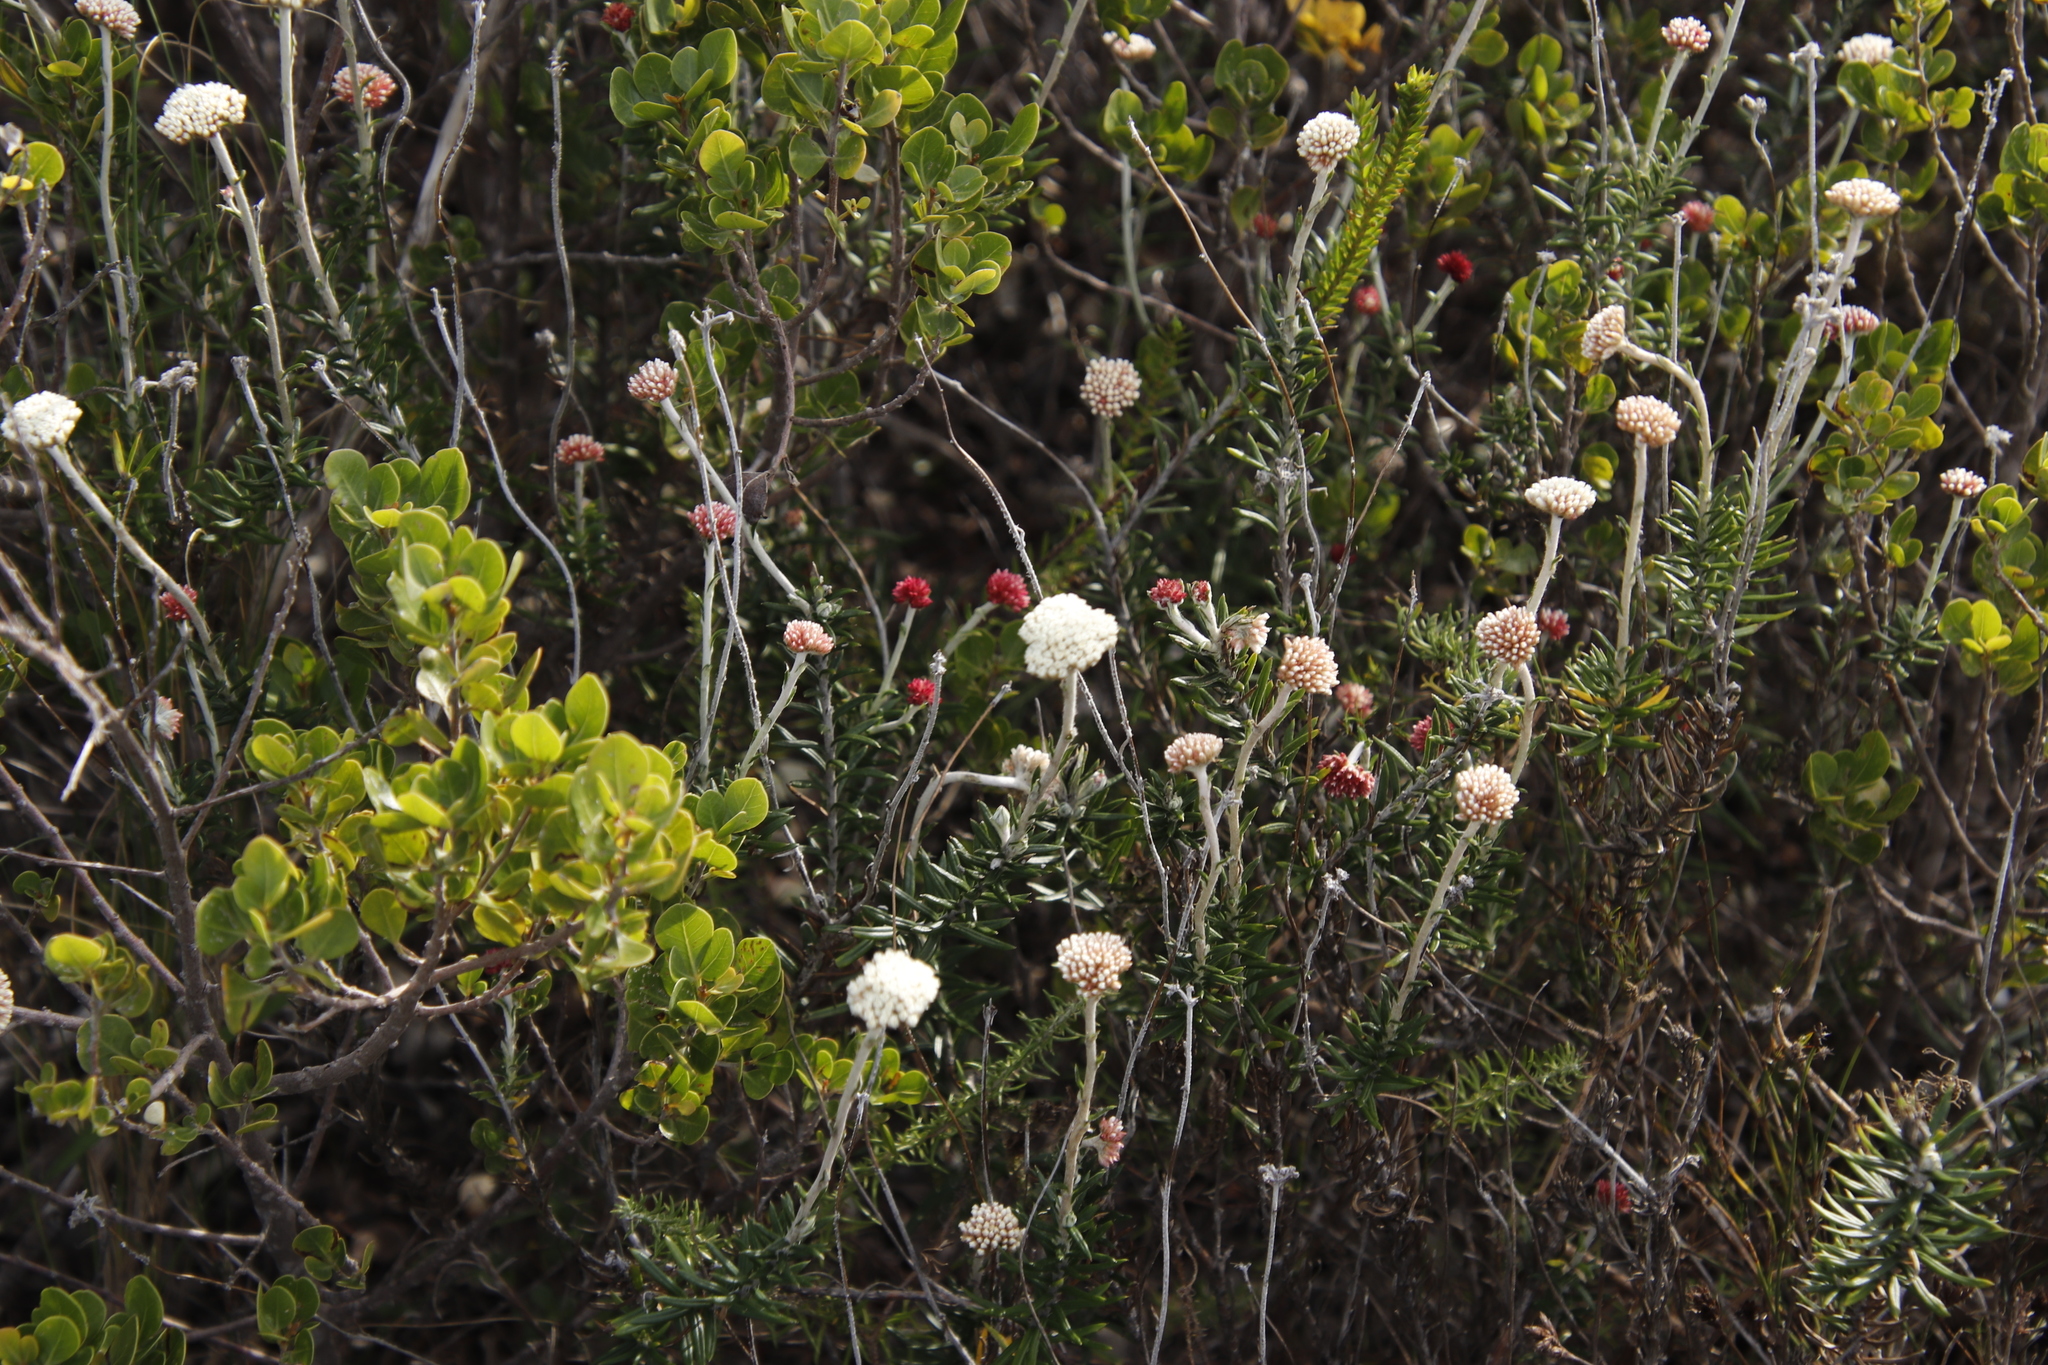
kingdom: Plantae
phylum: Tracheophyta
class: Magnoliopsida
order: Asterales
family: Asteraceae
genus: Anaxeton
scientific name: Anaxeton laeve
